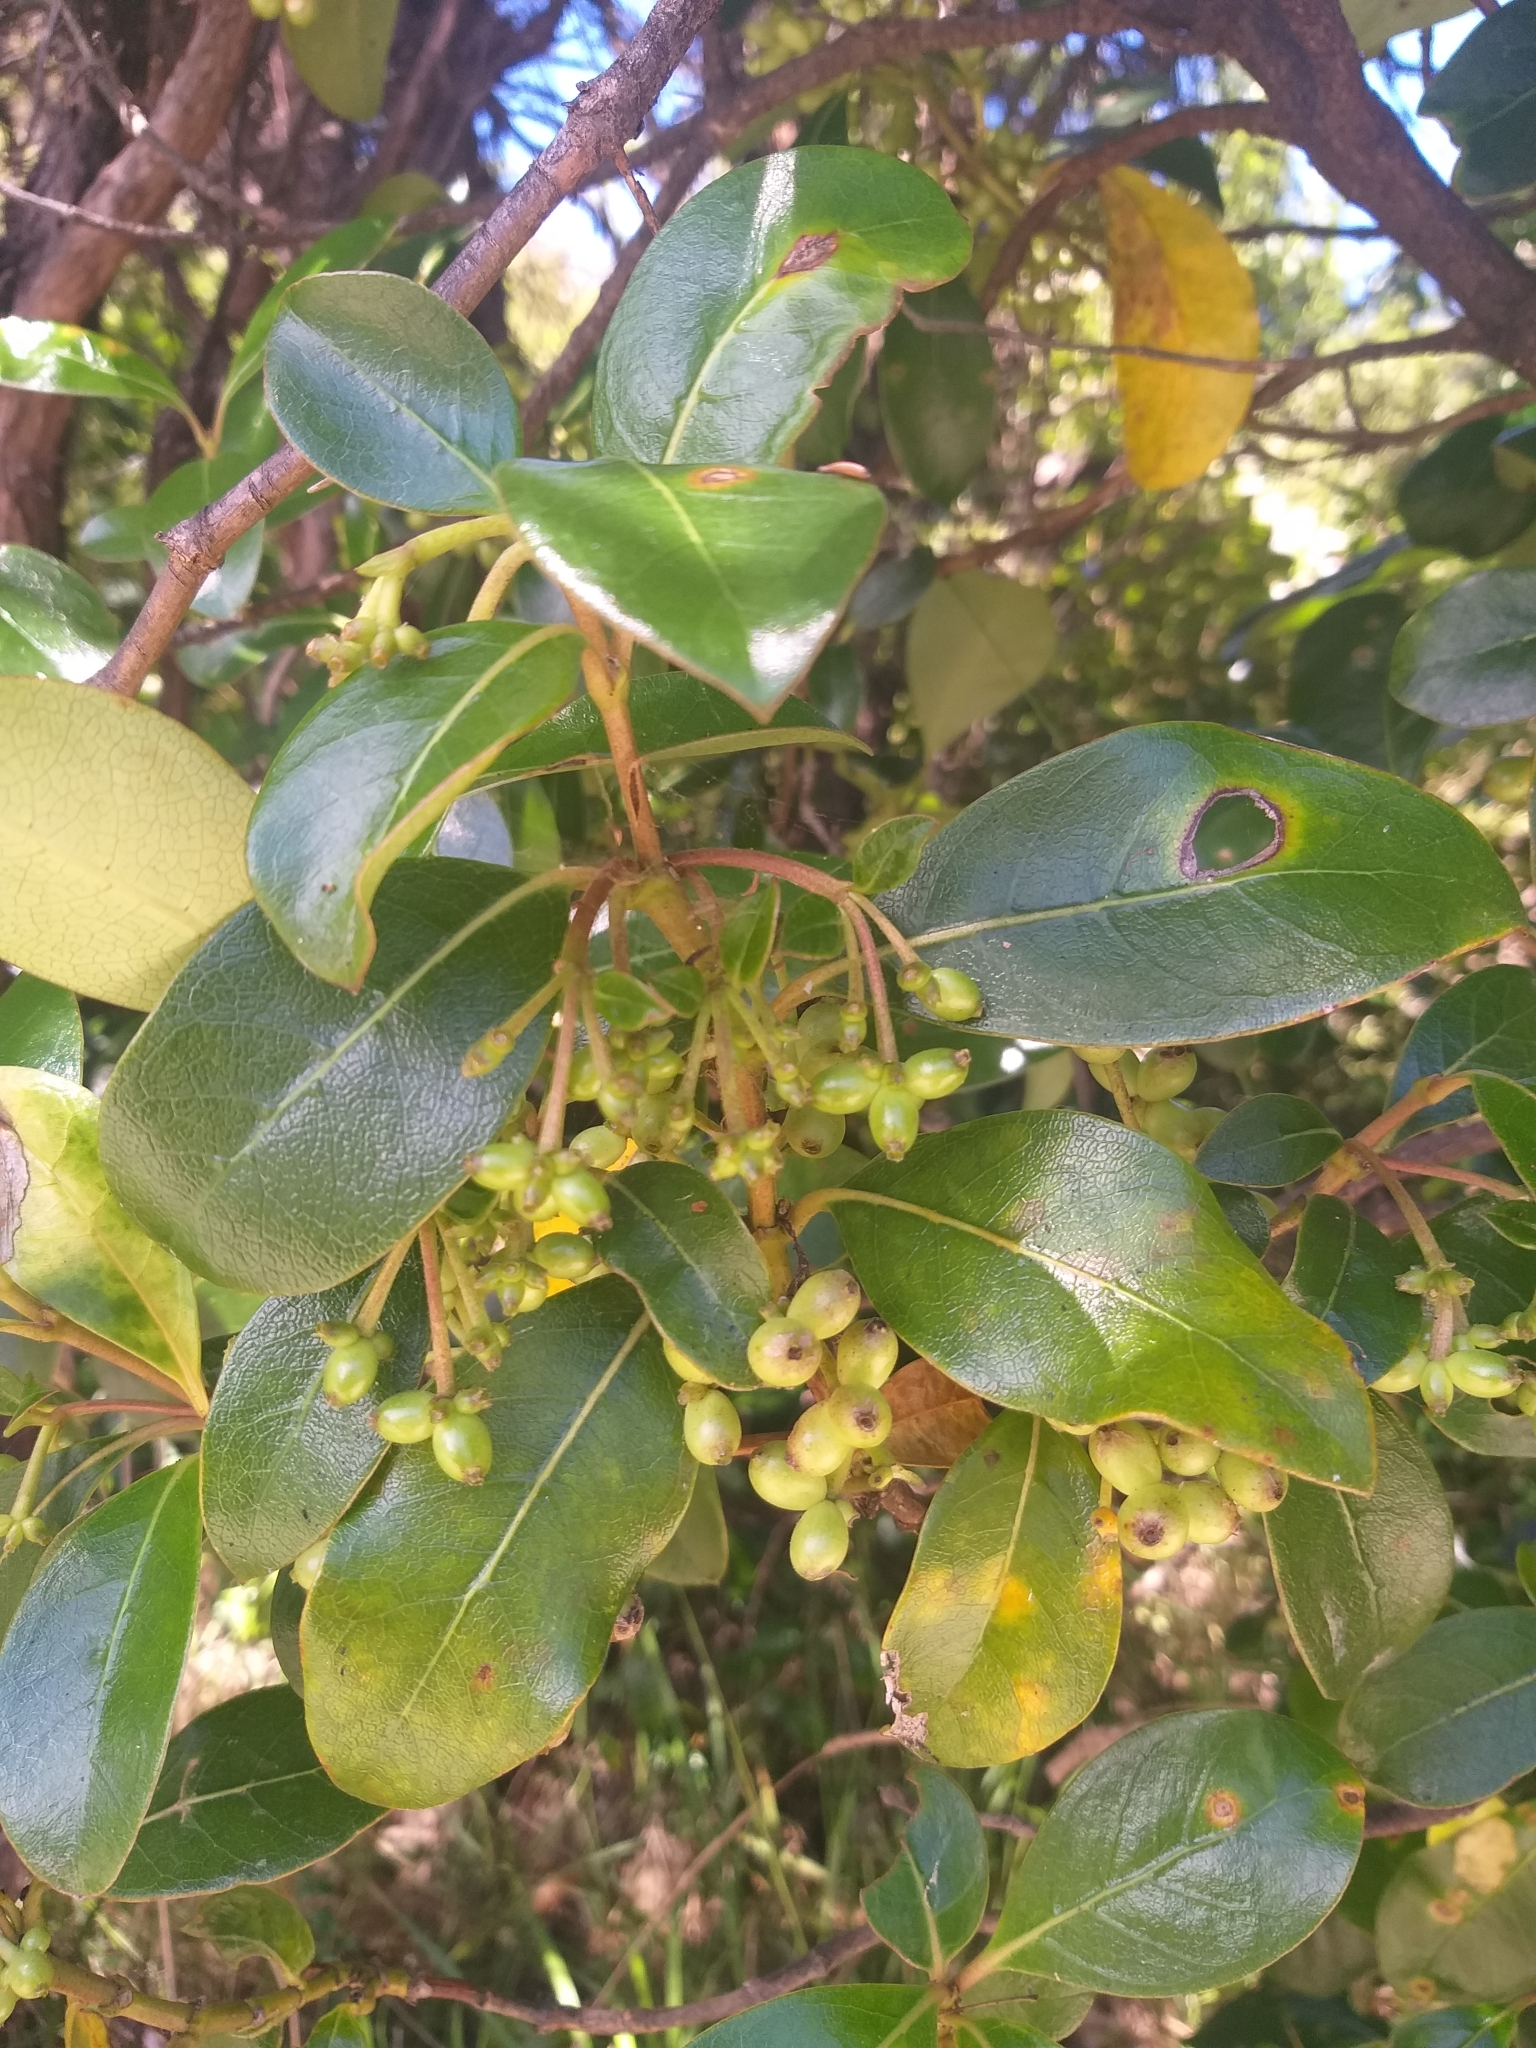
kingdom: Plantae
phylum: Tracheophyta
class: Magnoliopsida
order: Gentianales
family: Rubiaceae
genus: Coprosma
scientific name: Coprosma lucida
